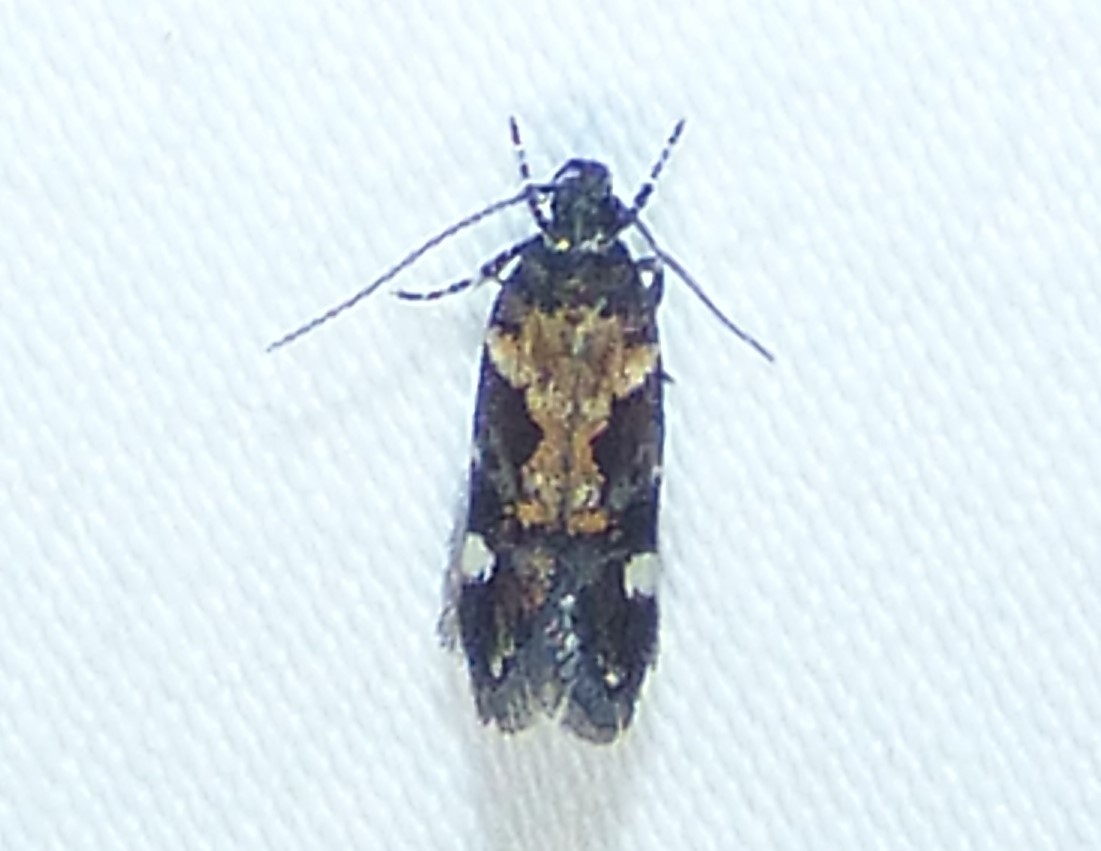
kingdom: Animalia
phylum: Arthropoda
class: Insecta
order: Lepidoptera
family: Gelechiidae
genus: Stegasta
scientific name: Stegasta bosqueella
